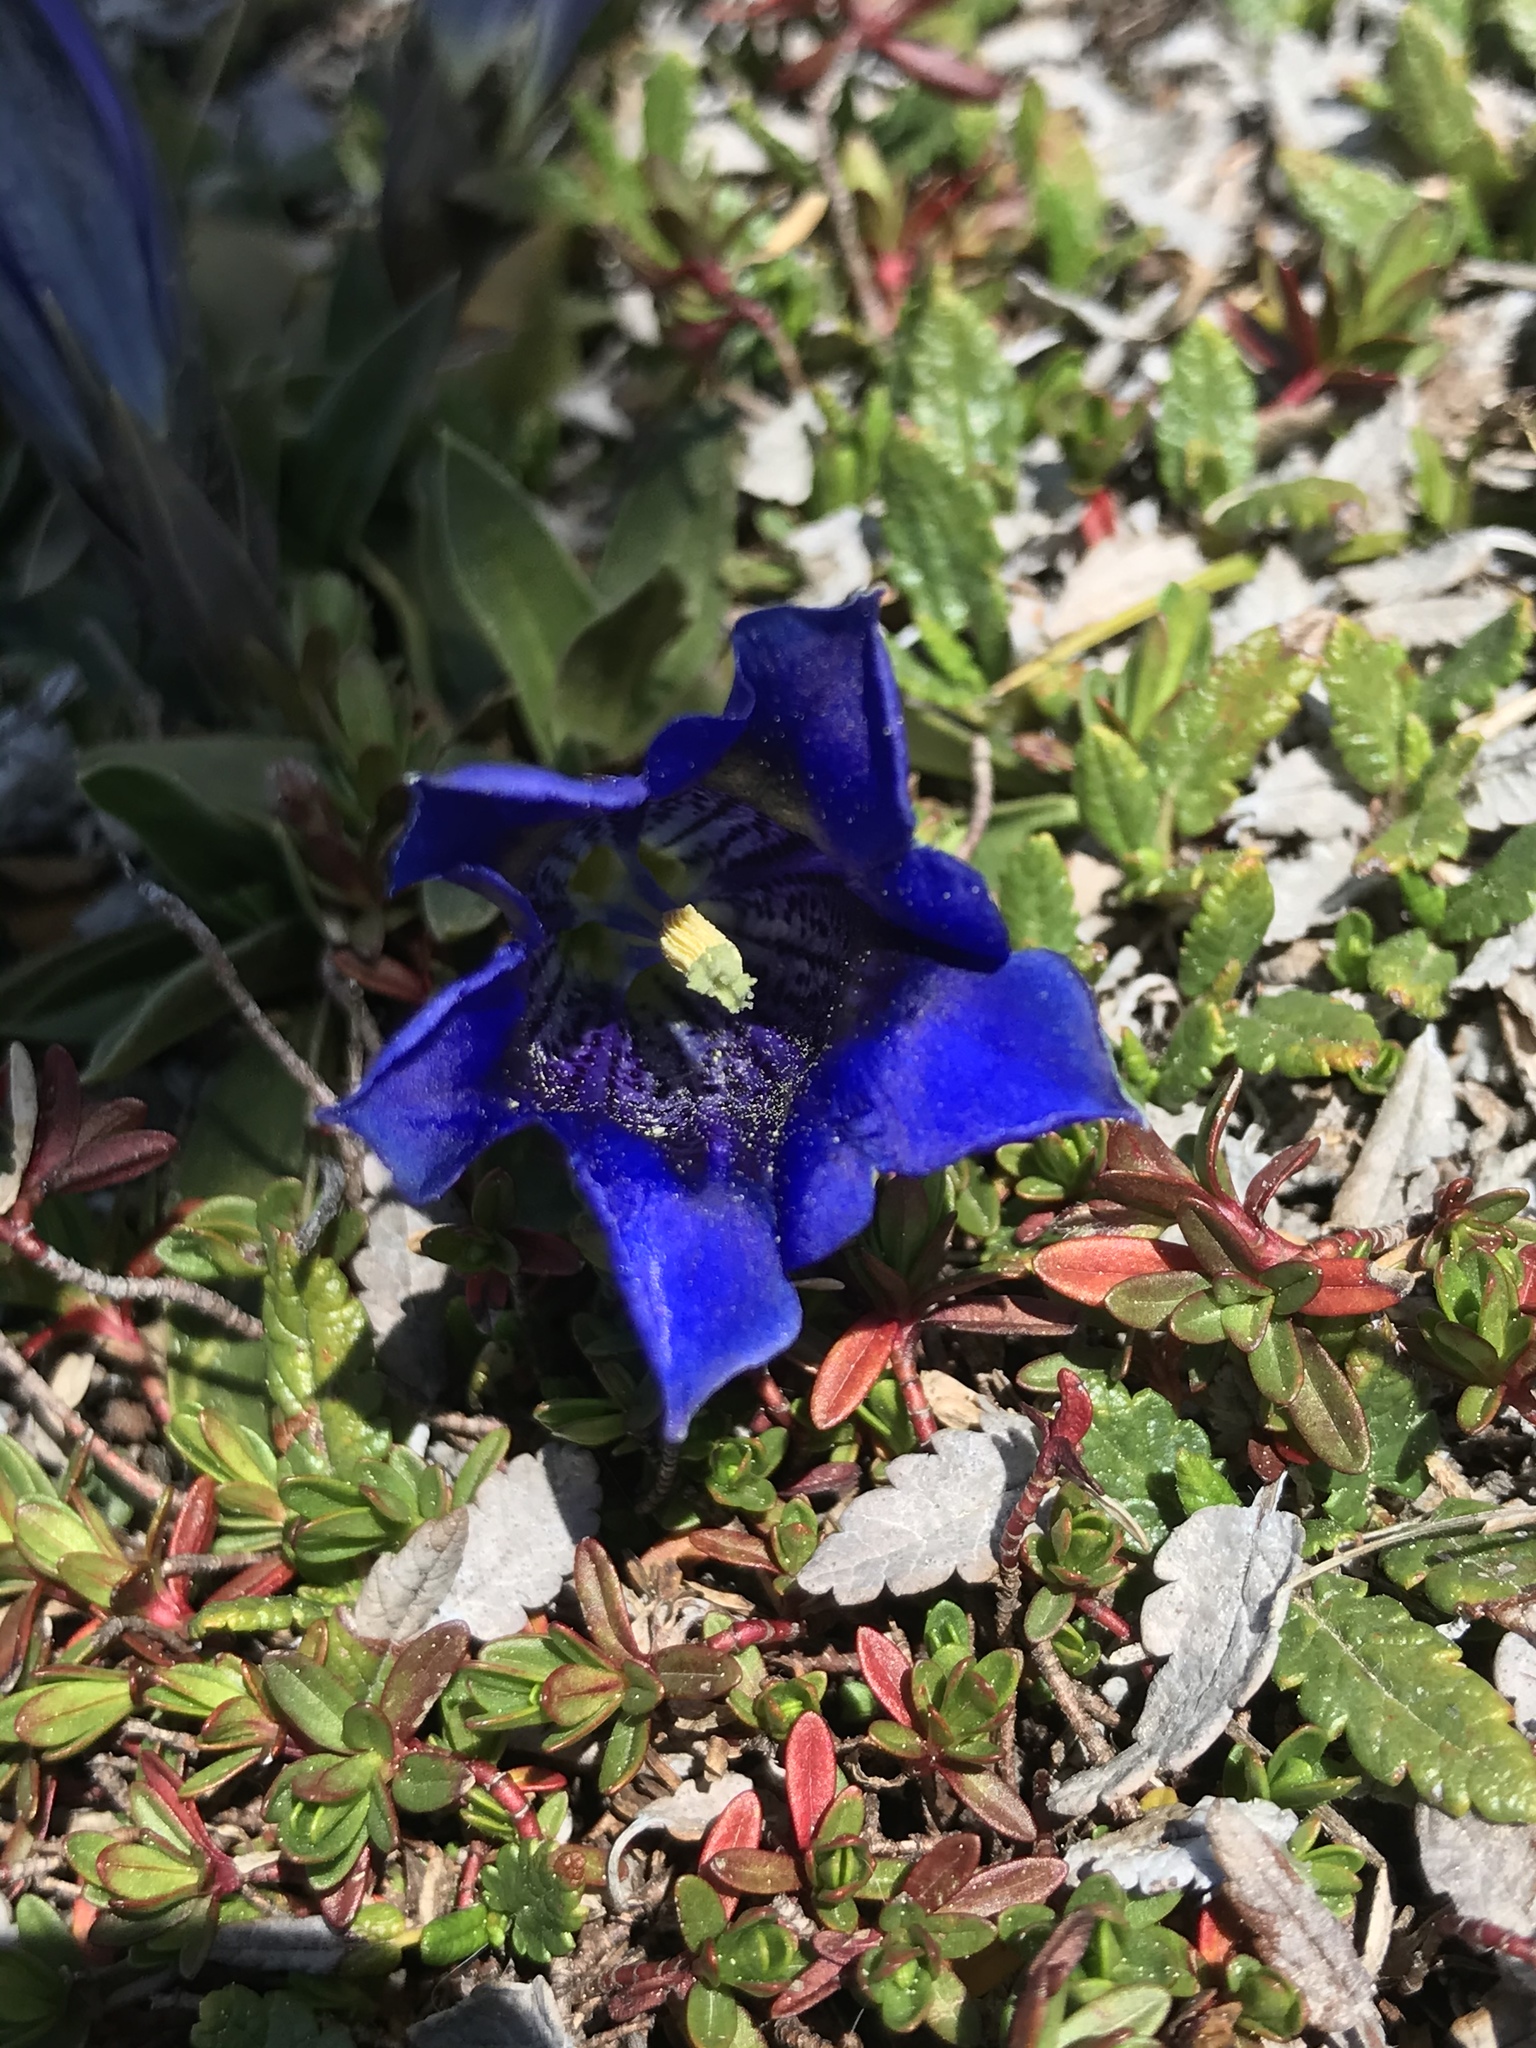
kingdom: Plantae
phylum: Tracheophyta
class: Magnoliopsida
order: Gentianales
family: Gentianaceae
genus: Gentiana
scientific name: Gentiana clusii
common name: Trumpet gentian
